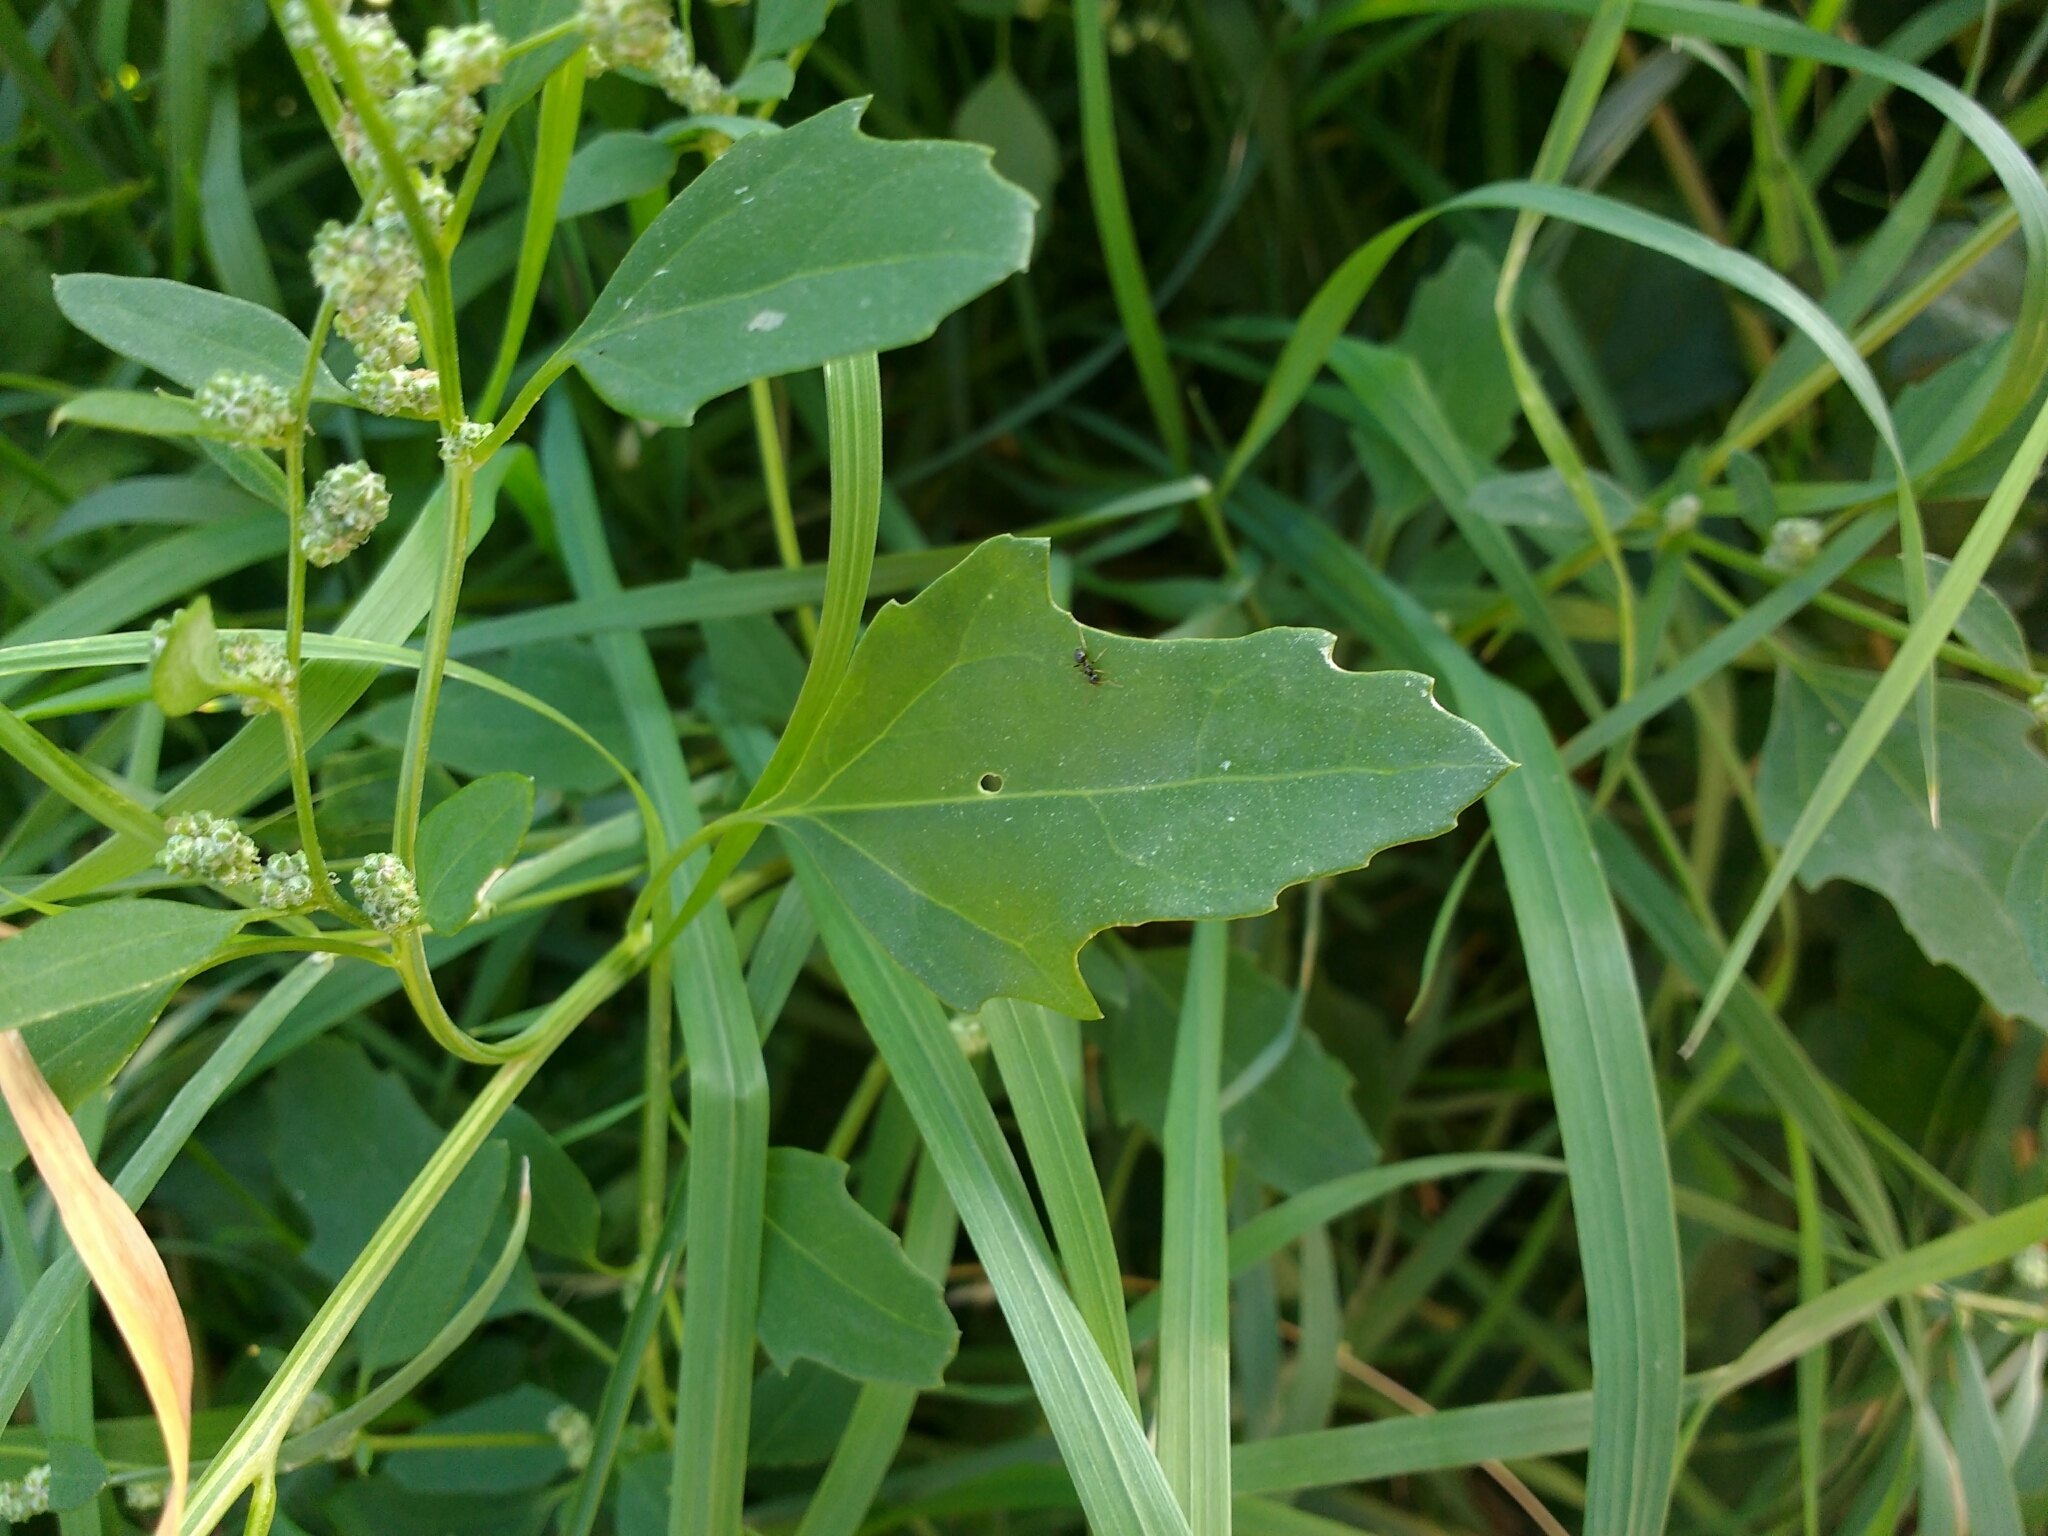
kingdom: Plantae
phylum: Tracheophyta
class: Magnoliopsida
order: Caryophyllales
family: Amaranthaceae
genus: Chenopodium
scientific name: Chenopodium album
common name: Fat-hen
